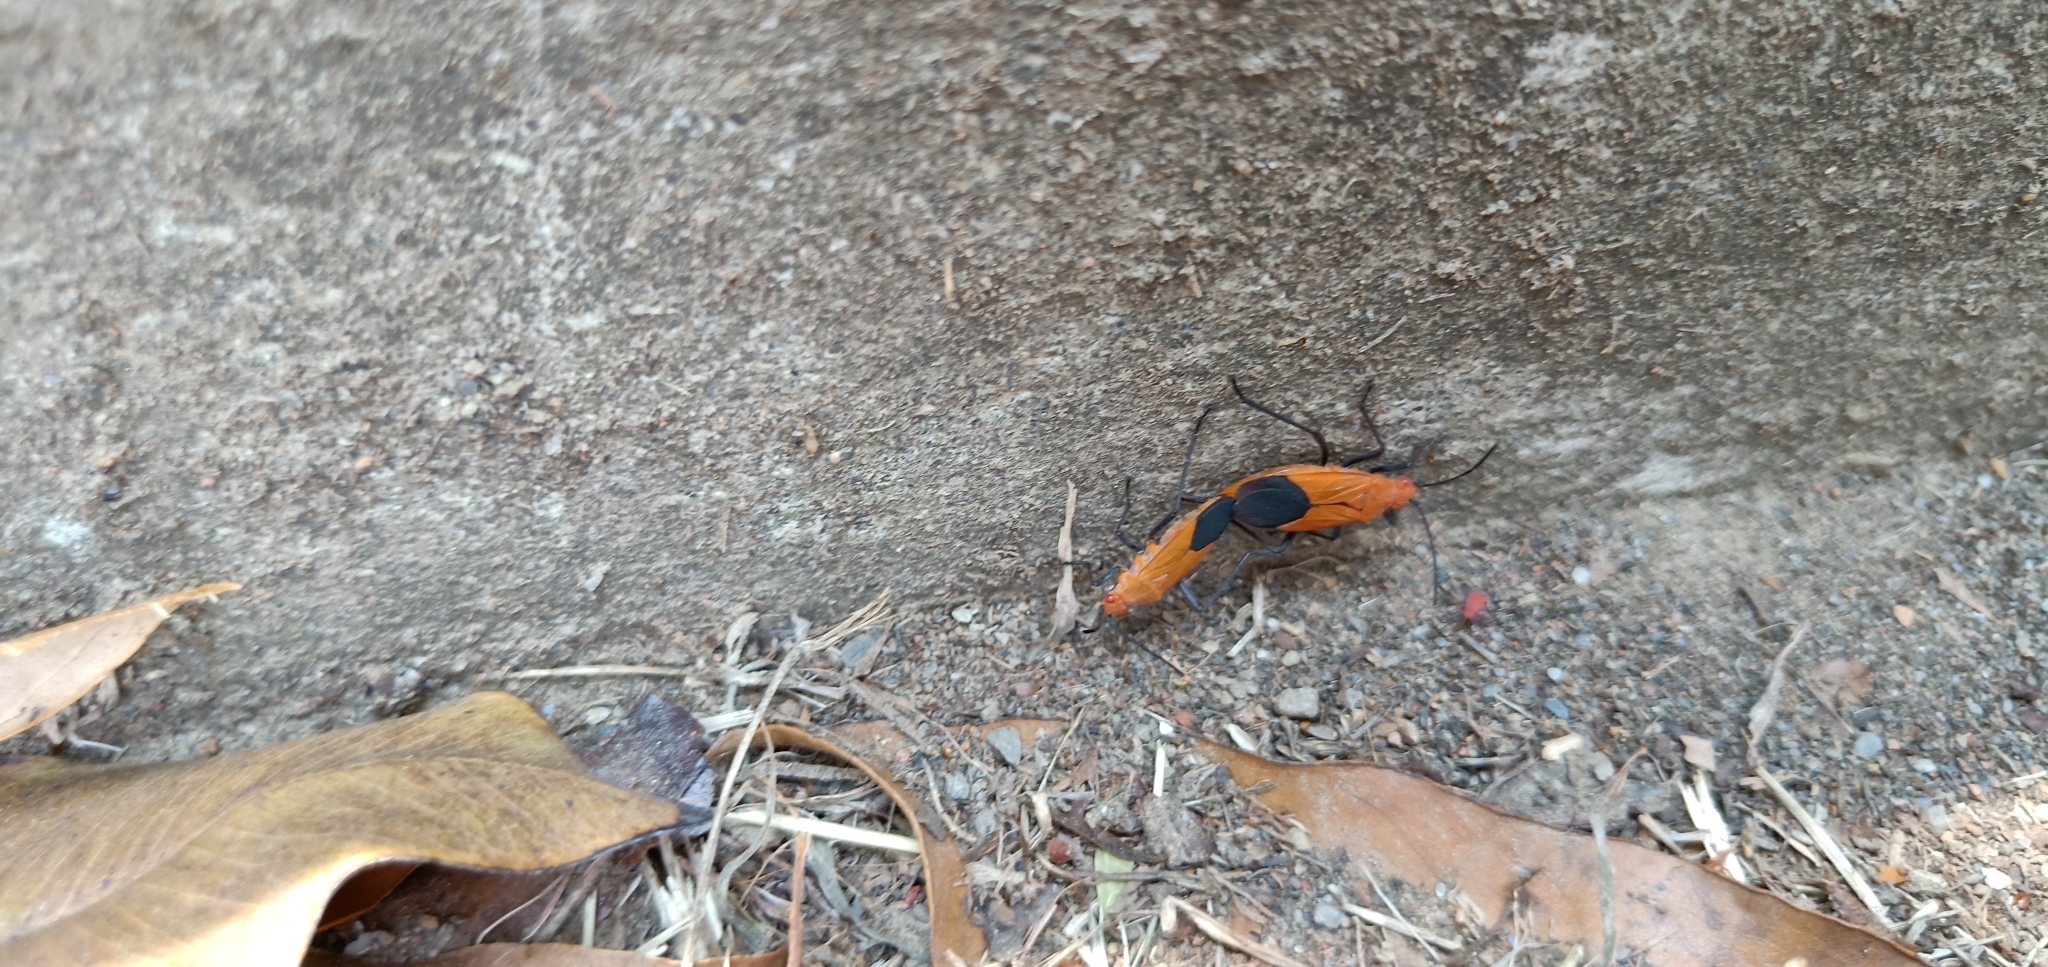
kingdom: Animalia
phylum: Arthropoda
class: Insecta
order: Hemiptera
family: Rhopalidae
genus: Leptocoris
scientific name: Leptocoris augur
